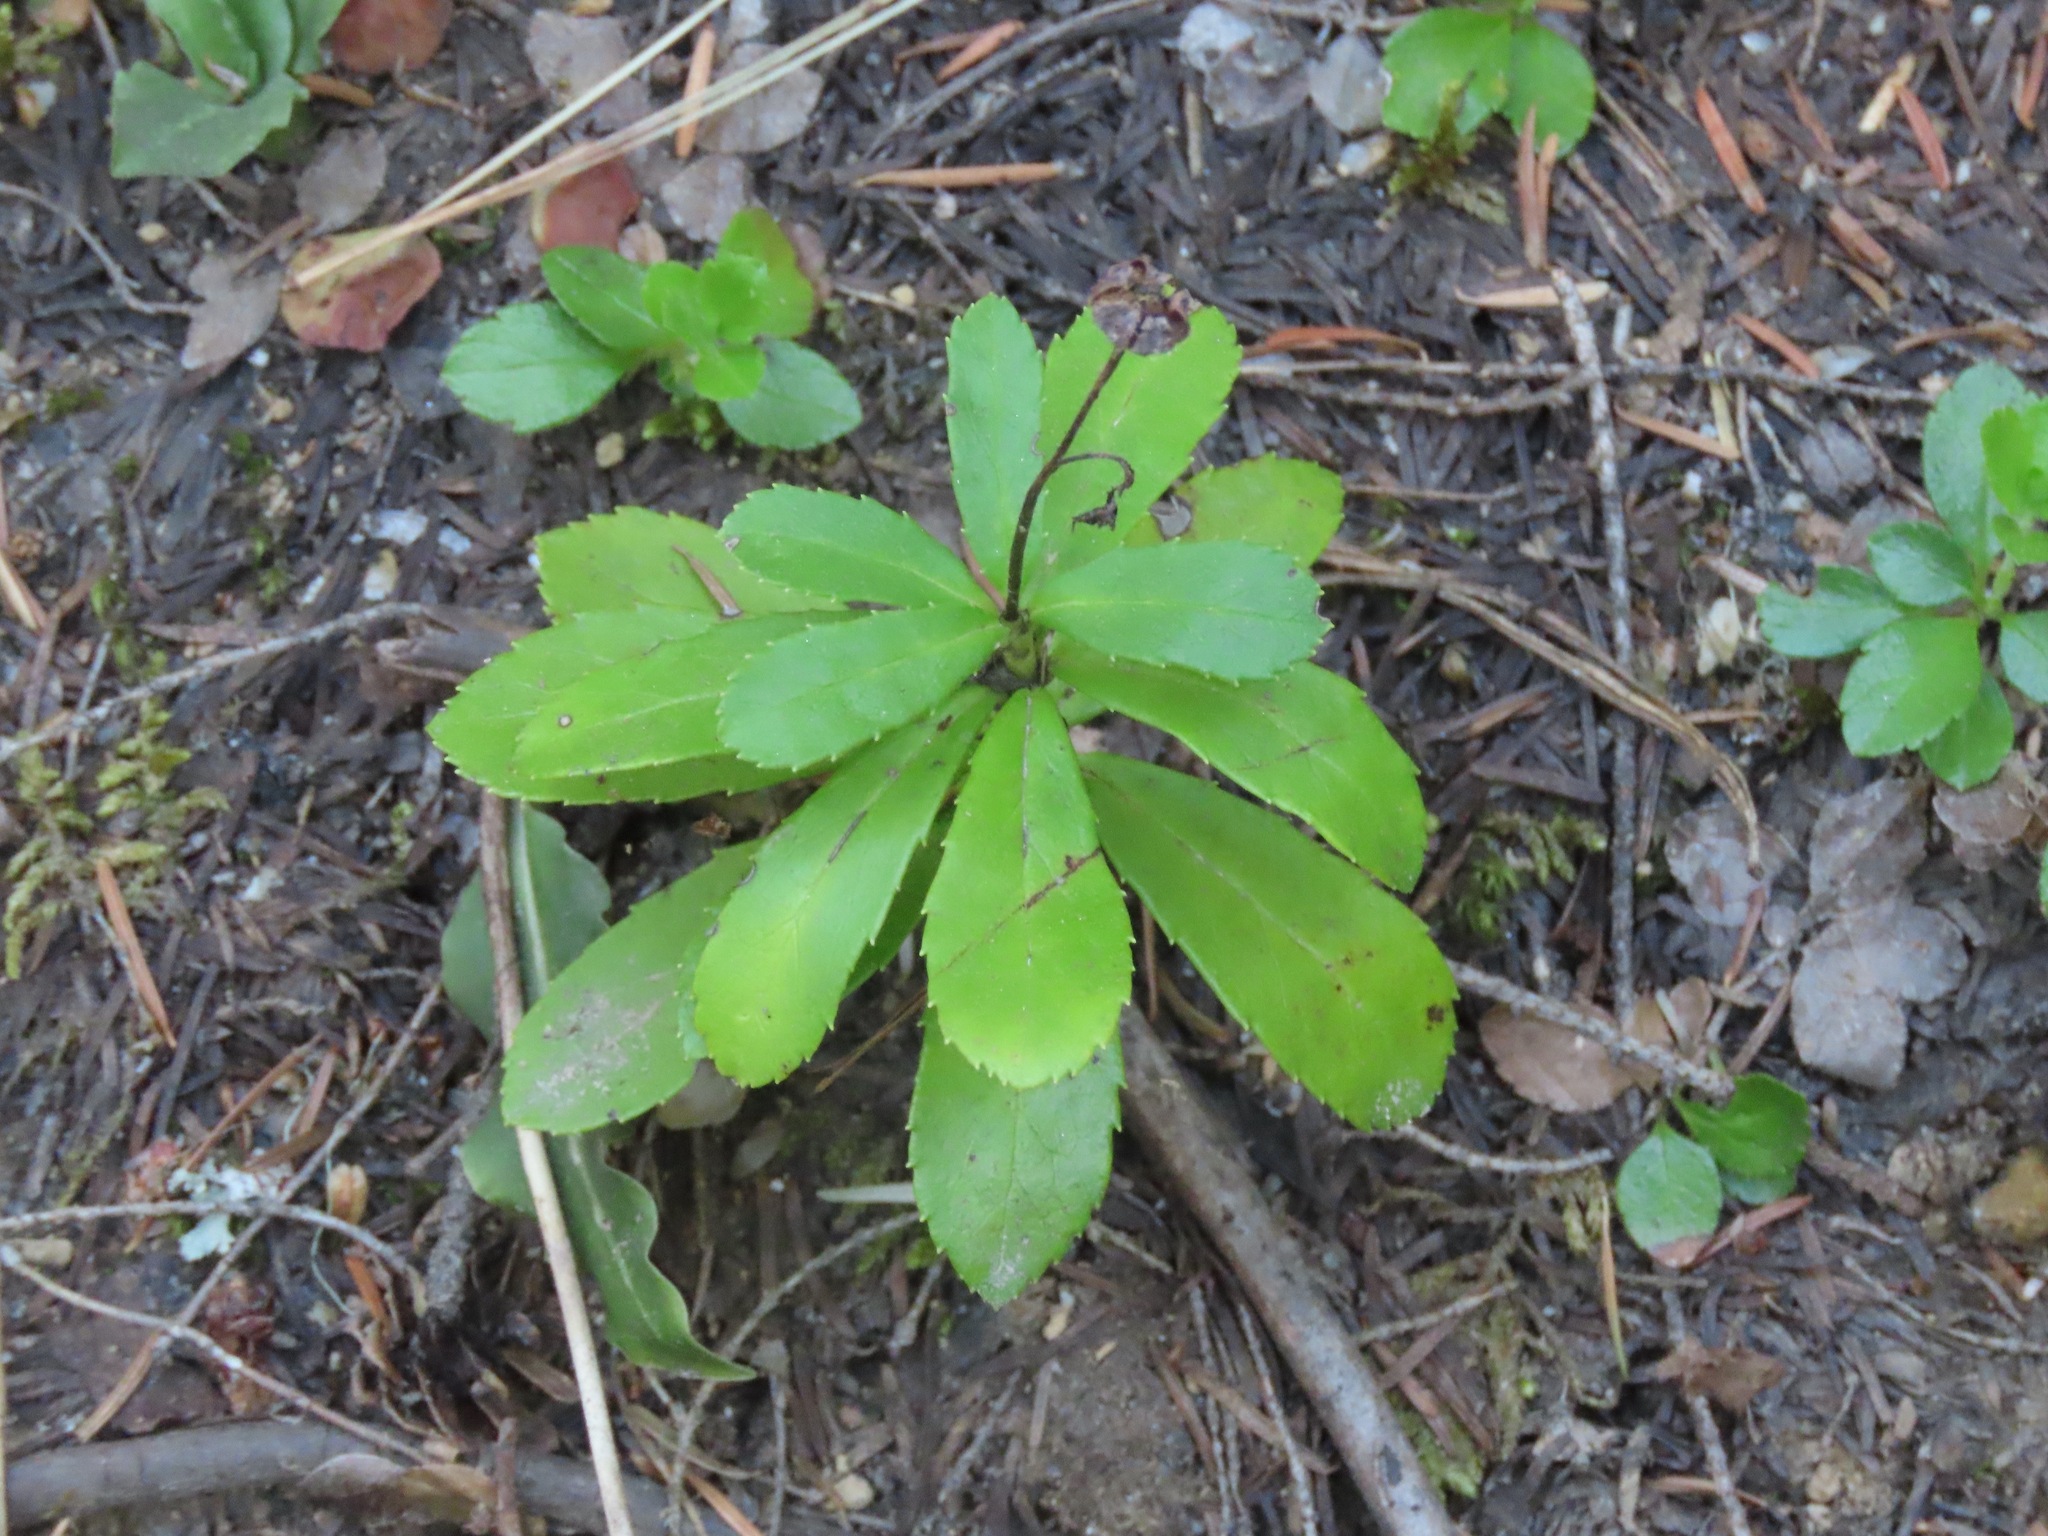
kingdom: Plantae
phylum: Tracheophyta
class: Magnoliopsida
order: Ericales
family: Ericaceae
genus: Chimaphila
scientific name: Chimaphila umbellata
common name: Pipsissewa
